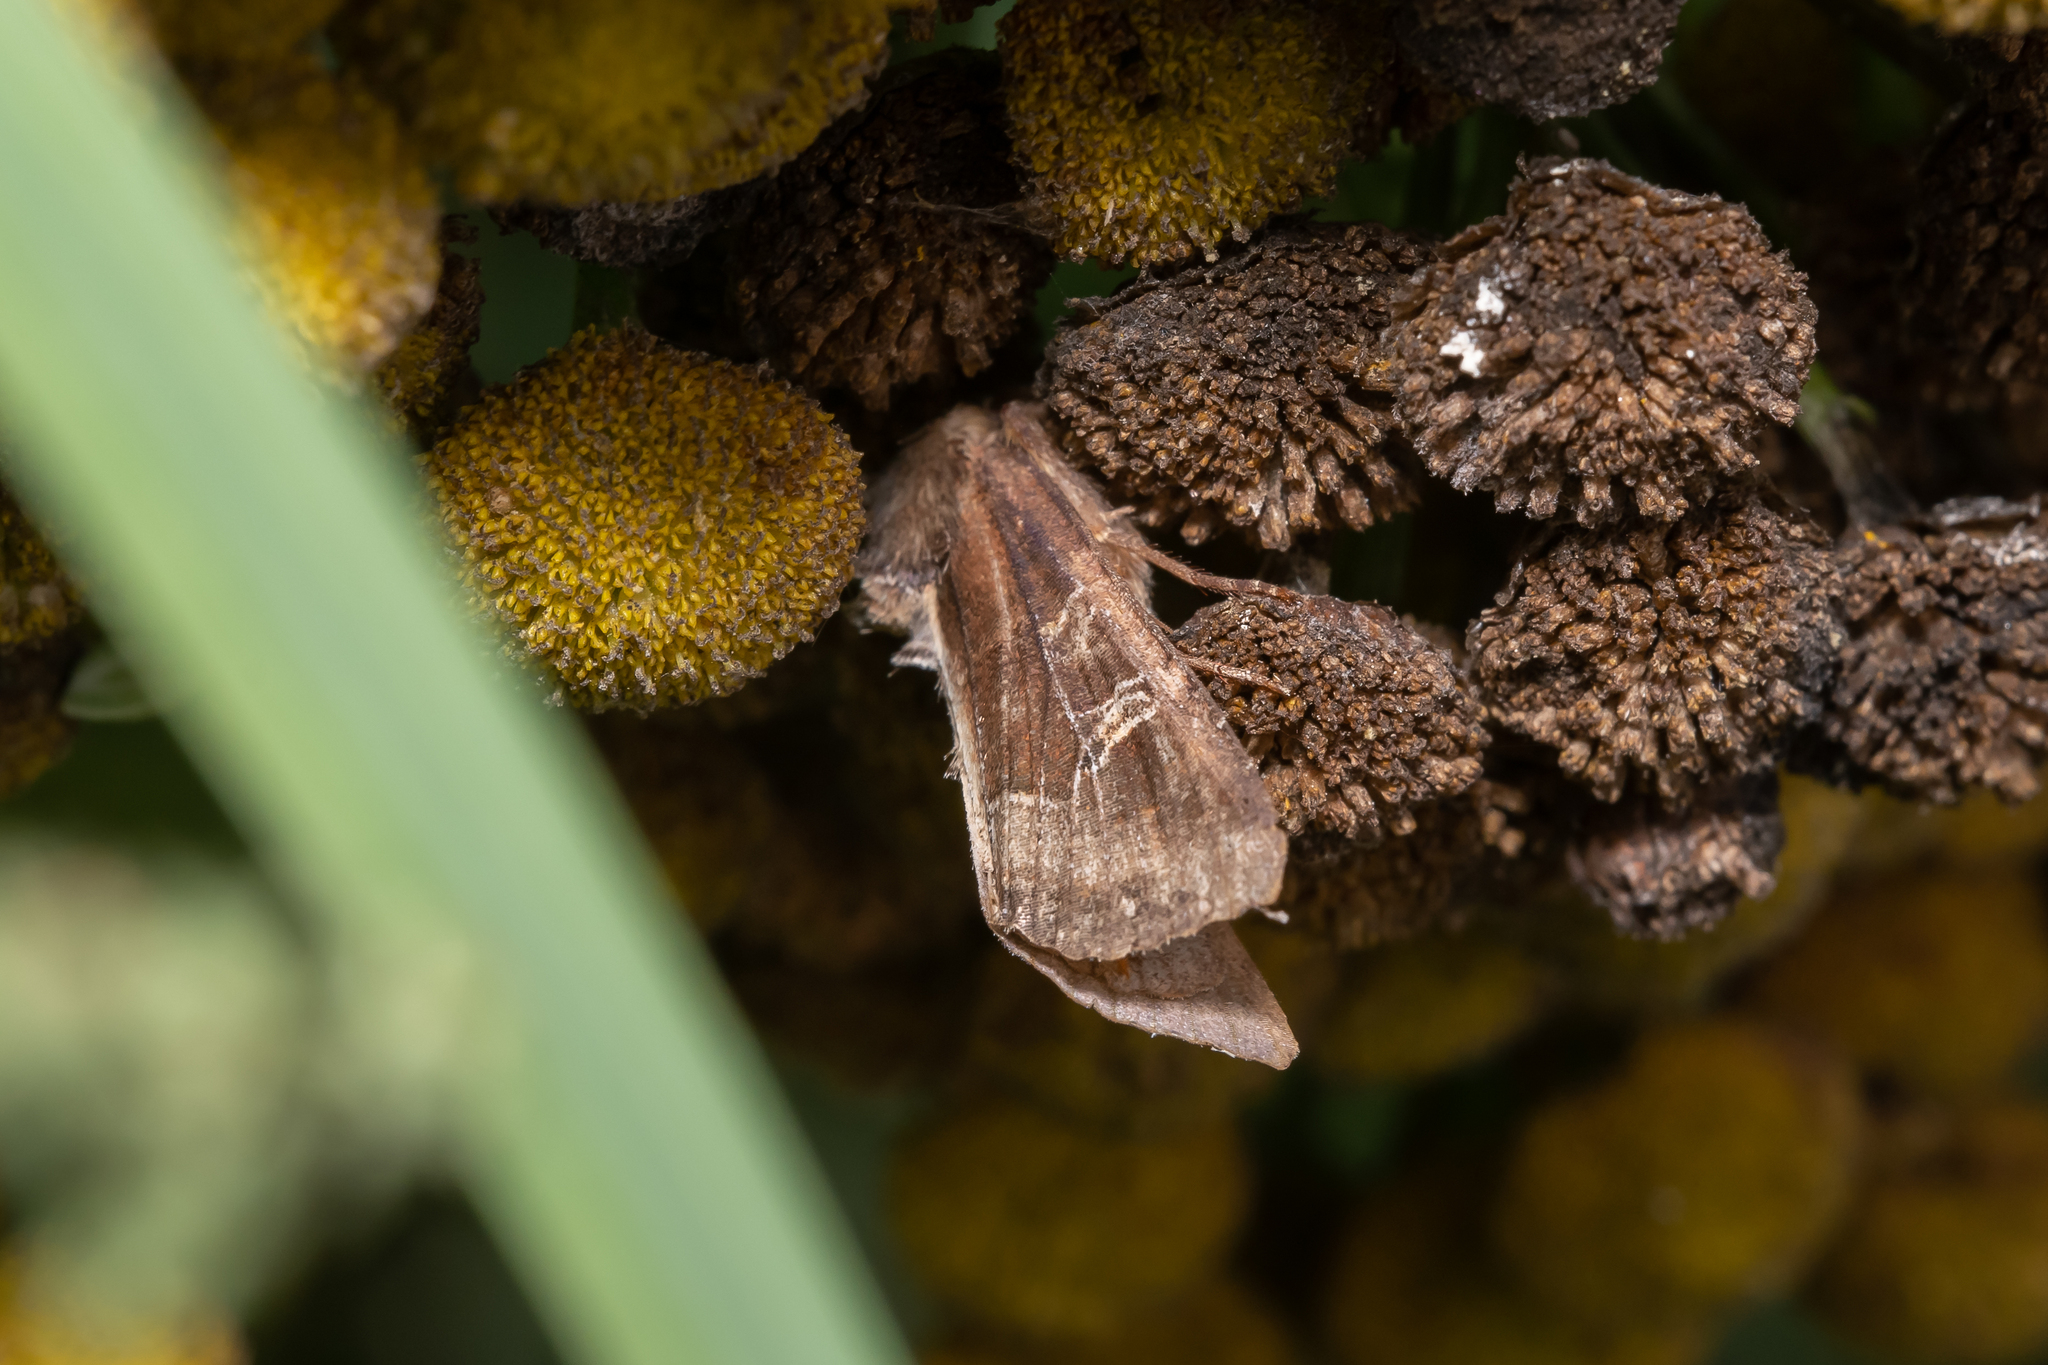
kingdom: Animalia
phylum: Arthropoda
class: Insecta
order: Lepidoptera
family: Noctuidae
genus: Helotropha
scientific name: Helotropha leucostigma
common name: The crescent
